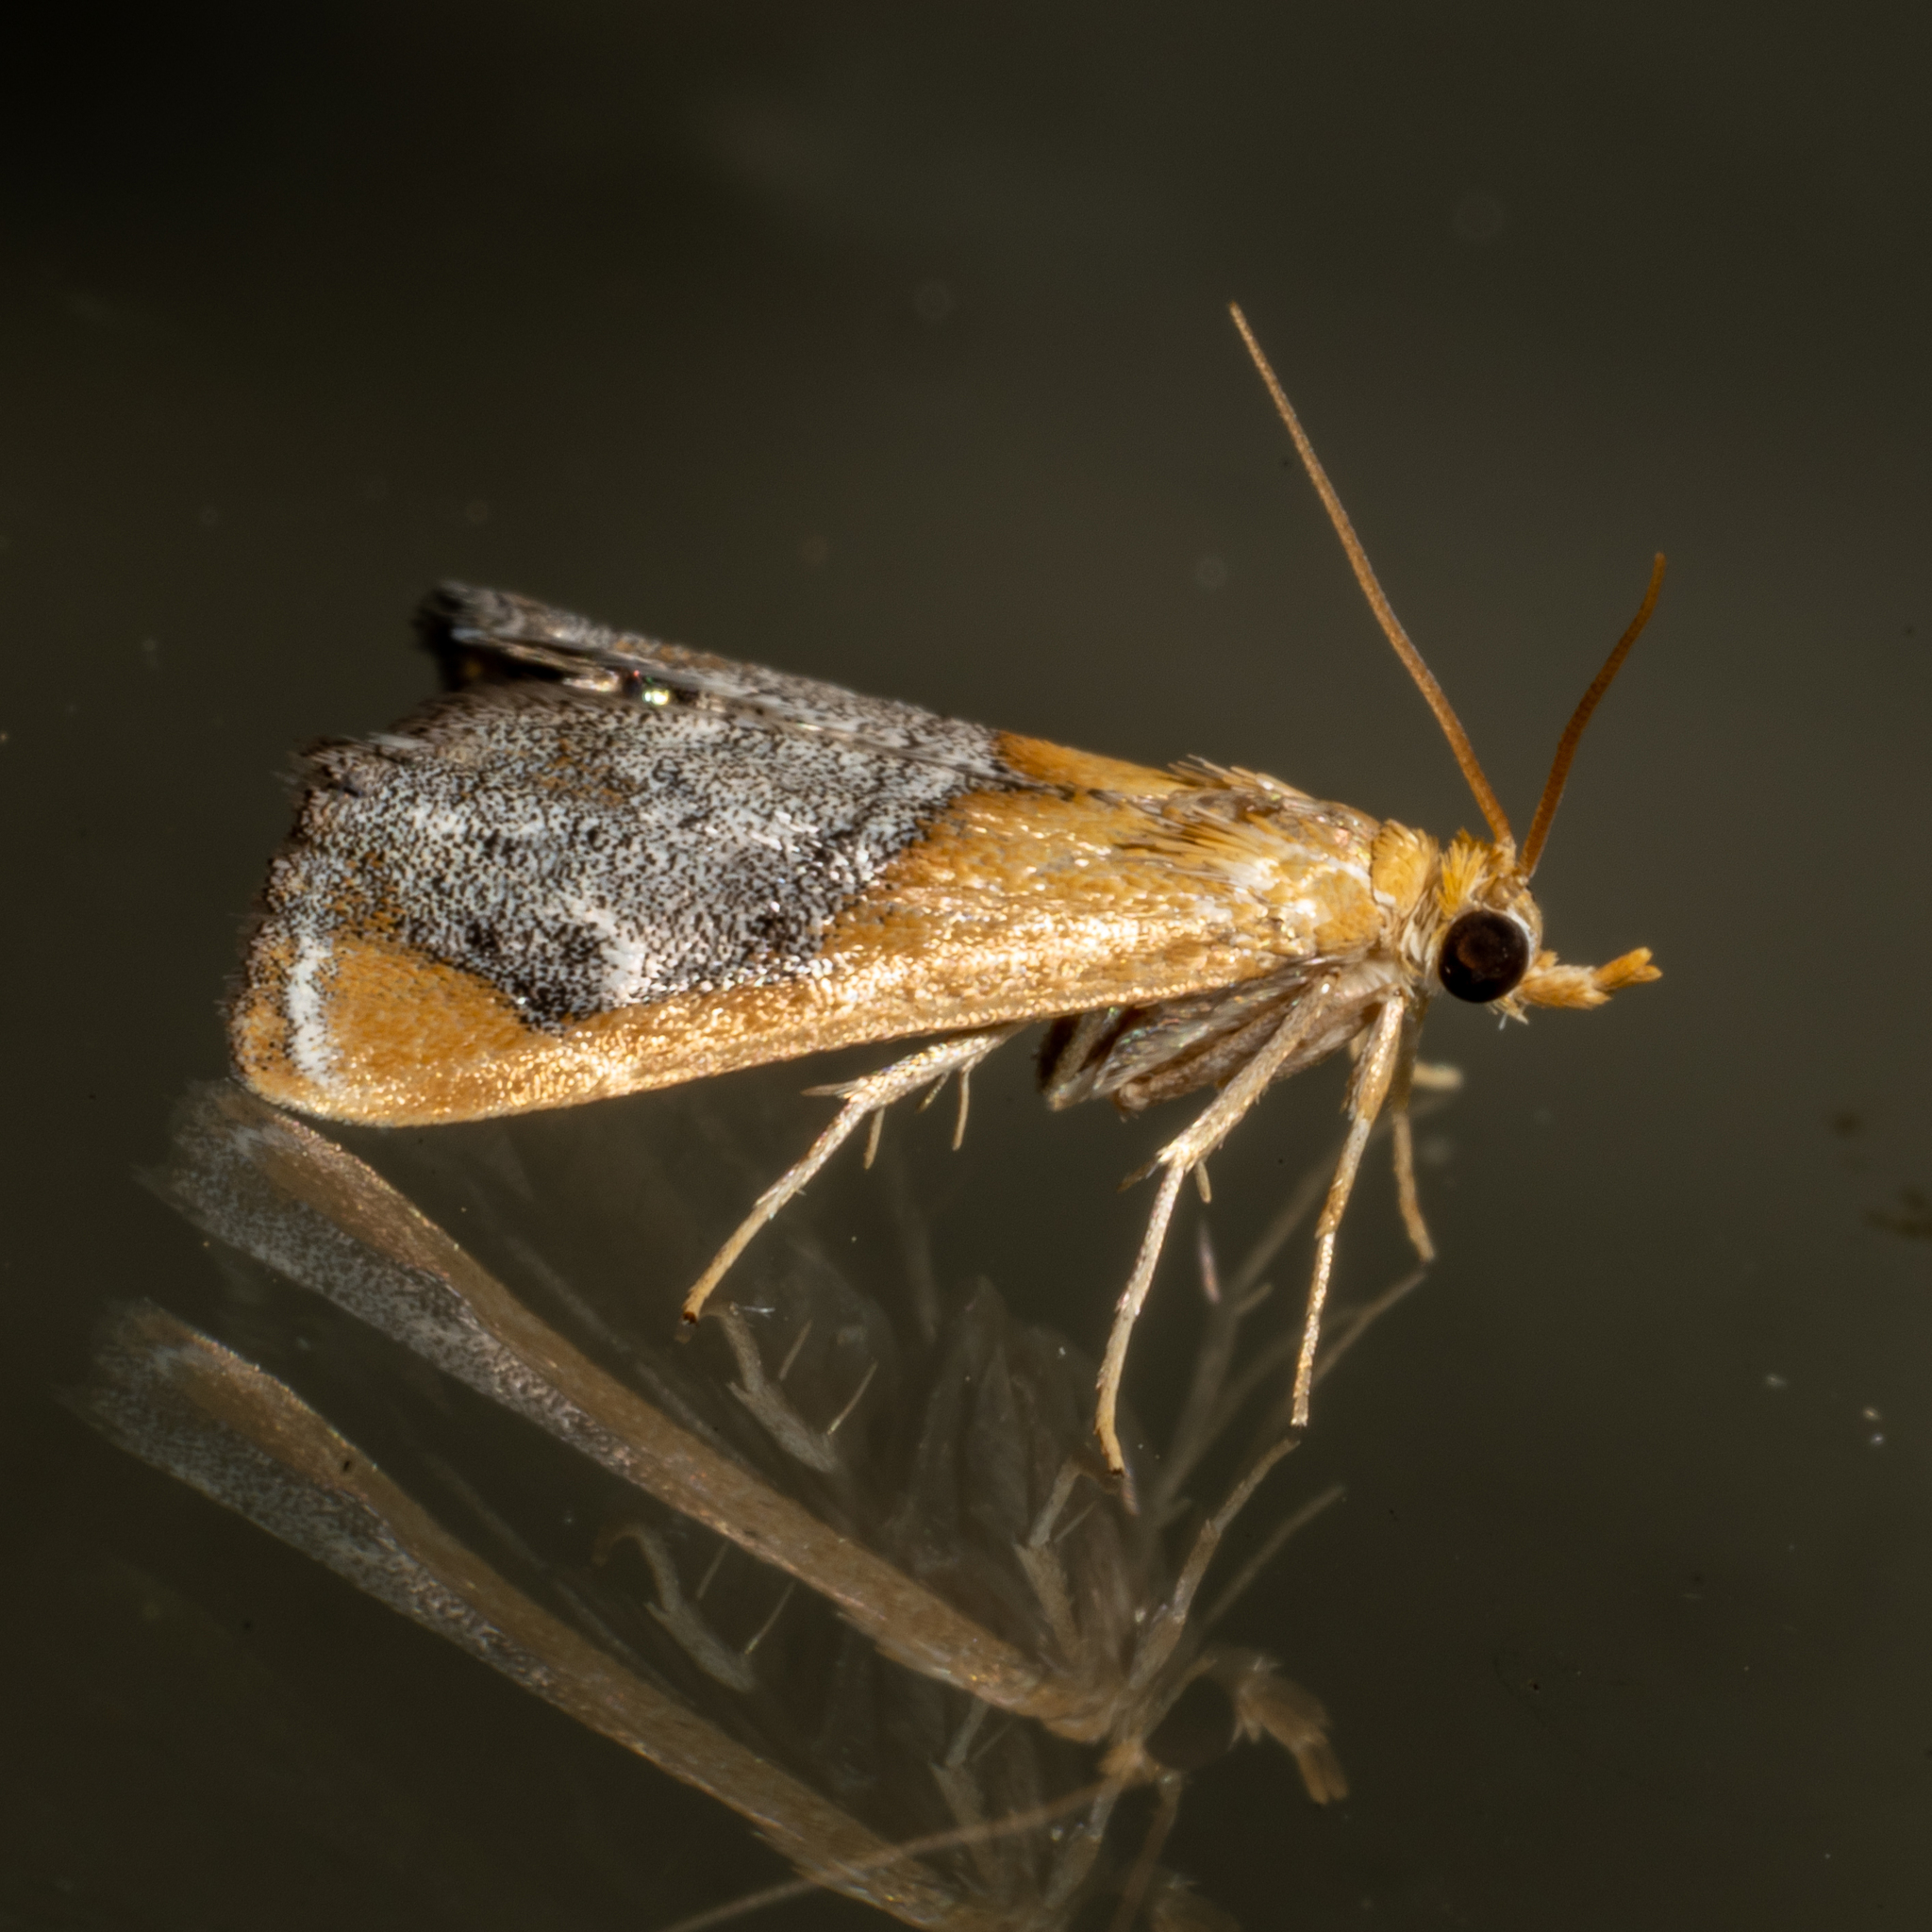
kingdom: Animalia
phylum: Arthropoda
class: Insecta
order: Lepidoptera
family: Crambidae
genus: Chalcoela
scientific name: Chalcoela iphitalis
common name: Sooty-winged chalcoela moth
